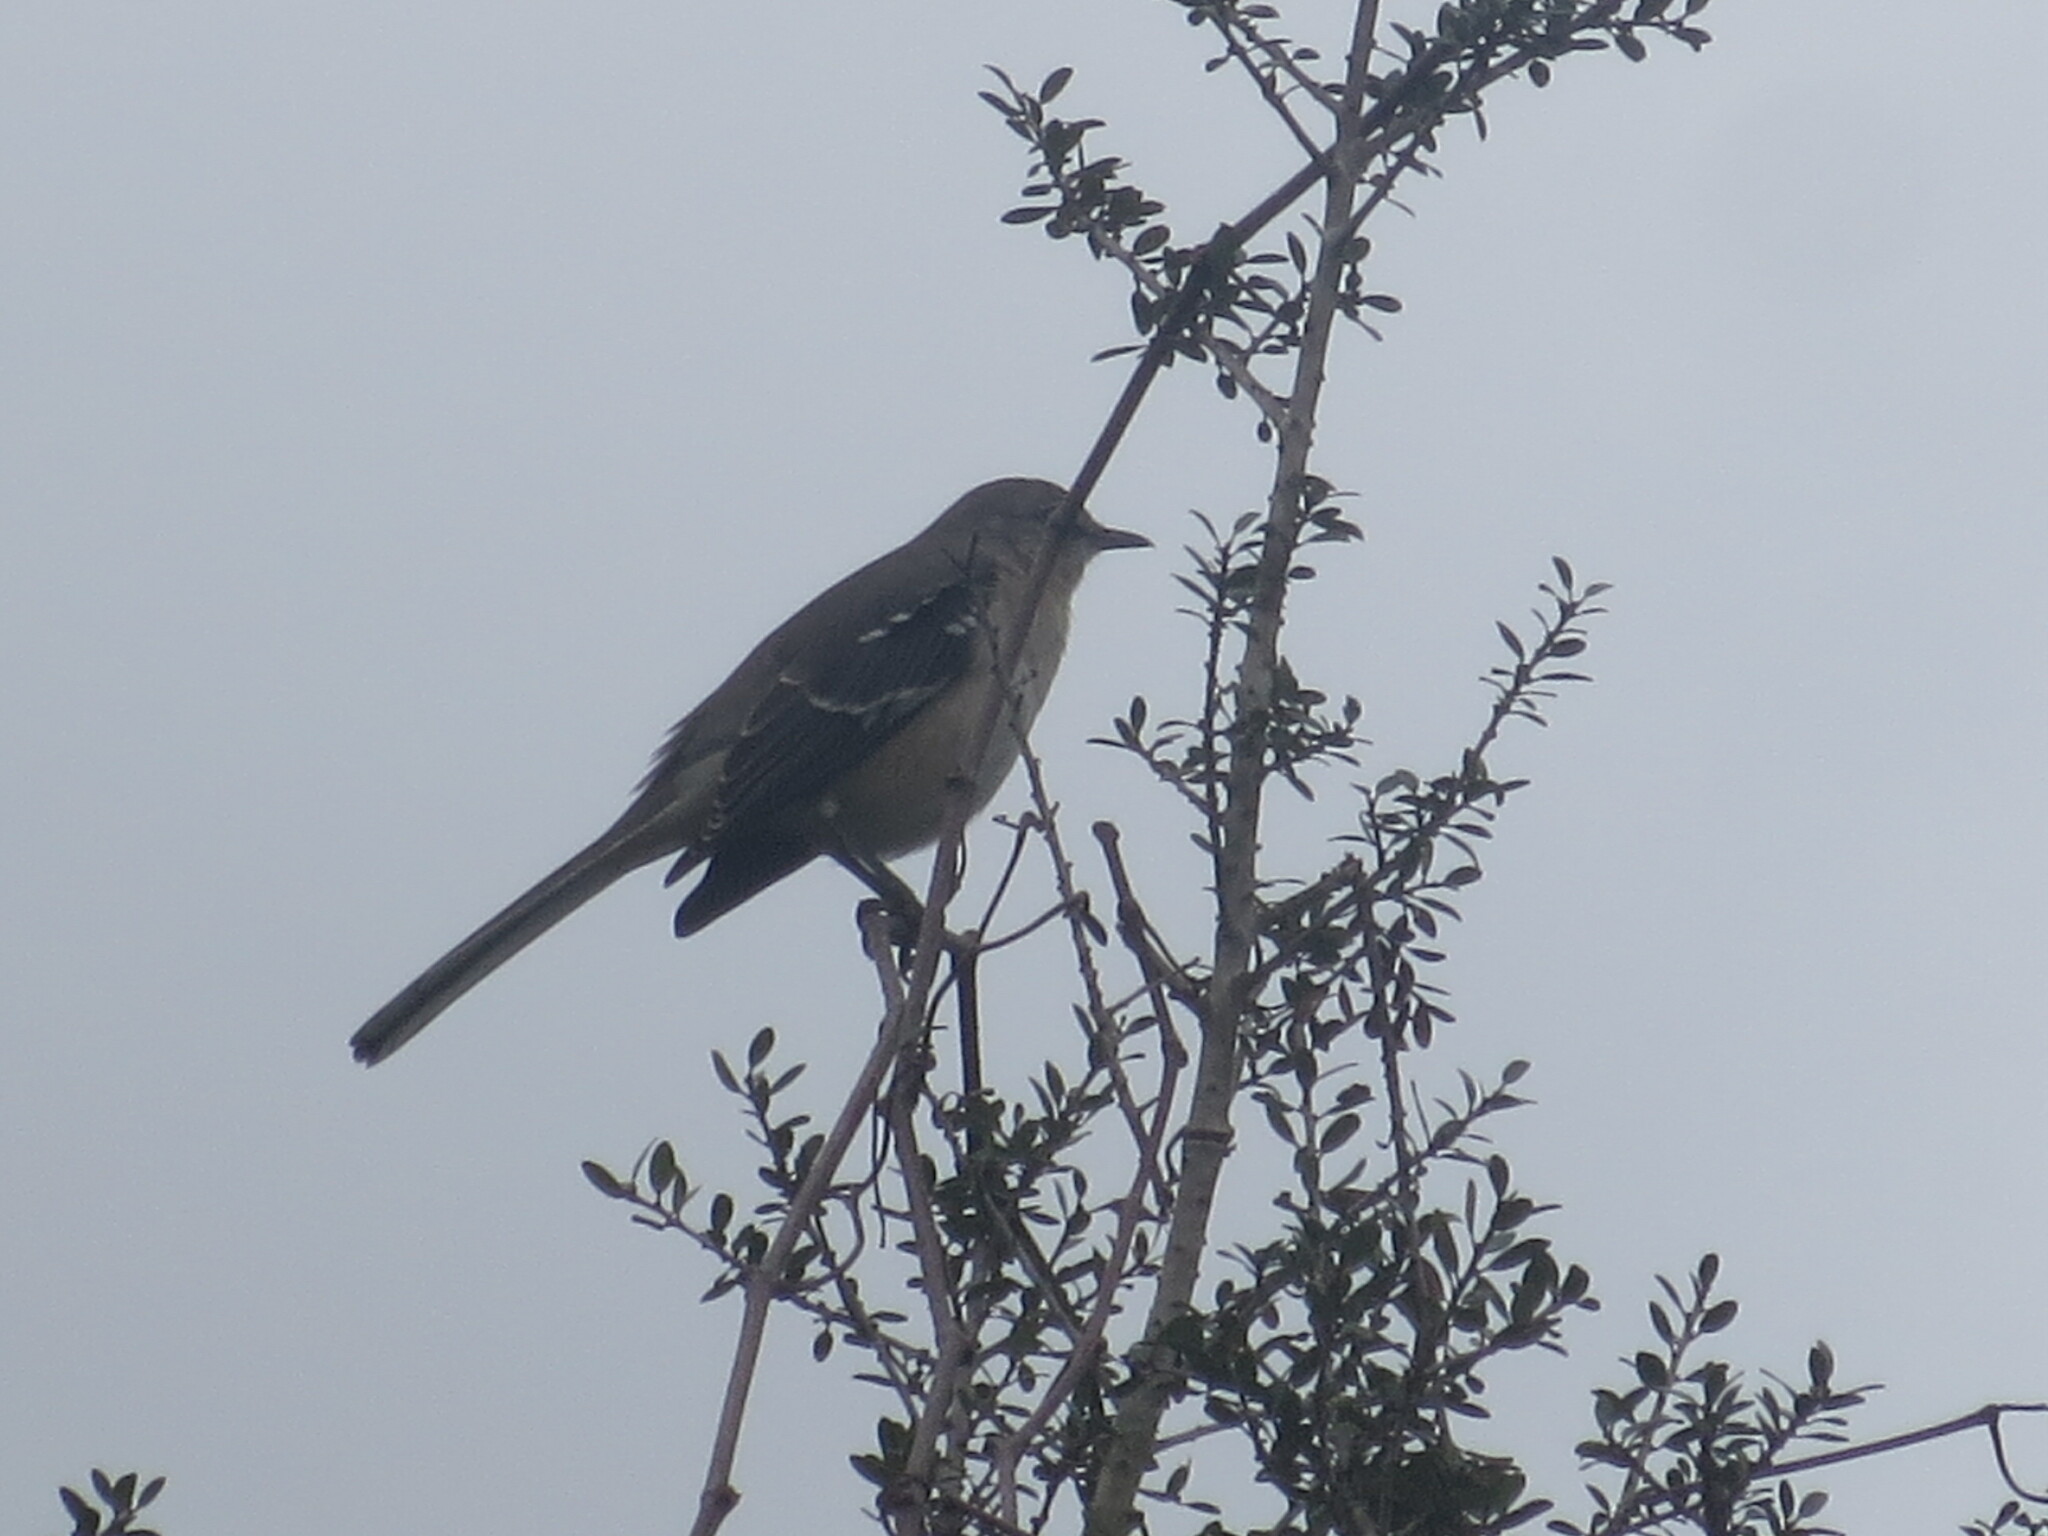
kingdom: Animalia
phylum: Chordata
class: Aves
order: Passeriformes
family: Mimidae
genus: Mimus
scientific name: Mimus polyglottos
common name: Northern mockingbird
